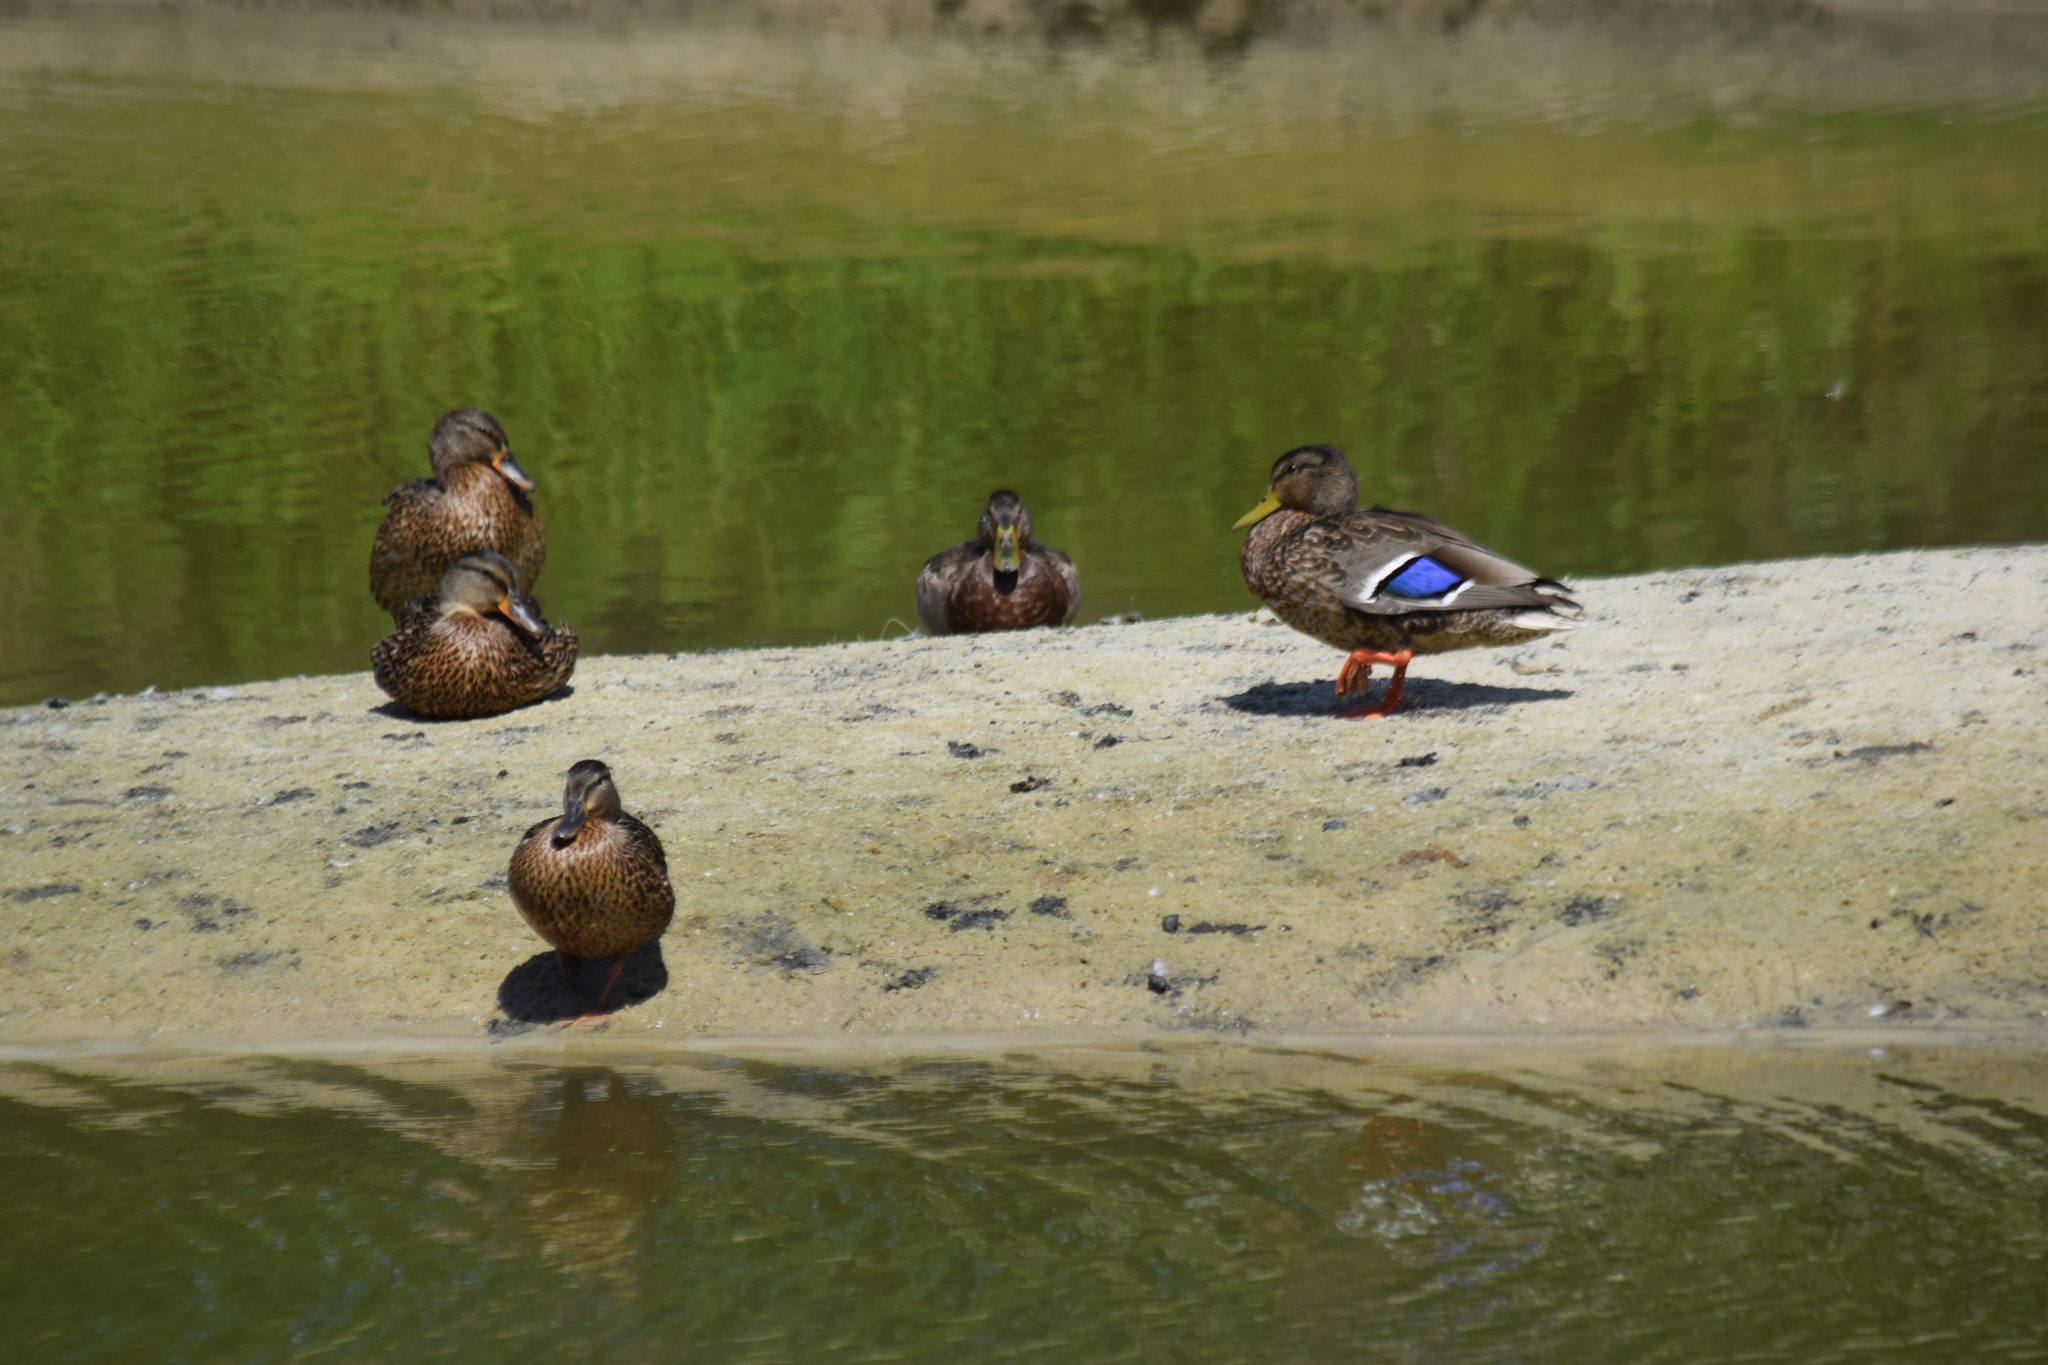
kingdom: Animalia
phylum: Chordata
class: Aves
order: Anseriformes
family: Anatidae
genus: Anas
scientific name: Anas platyrhynchos
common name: Mallard
